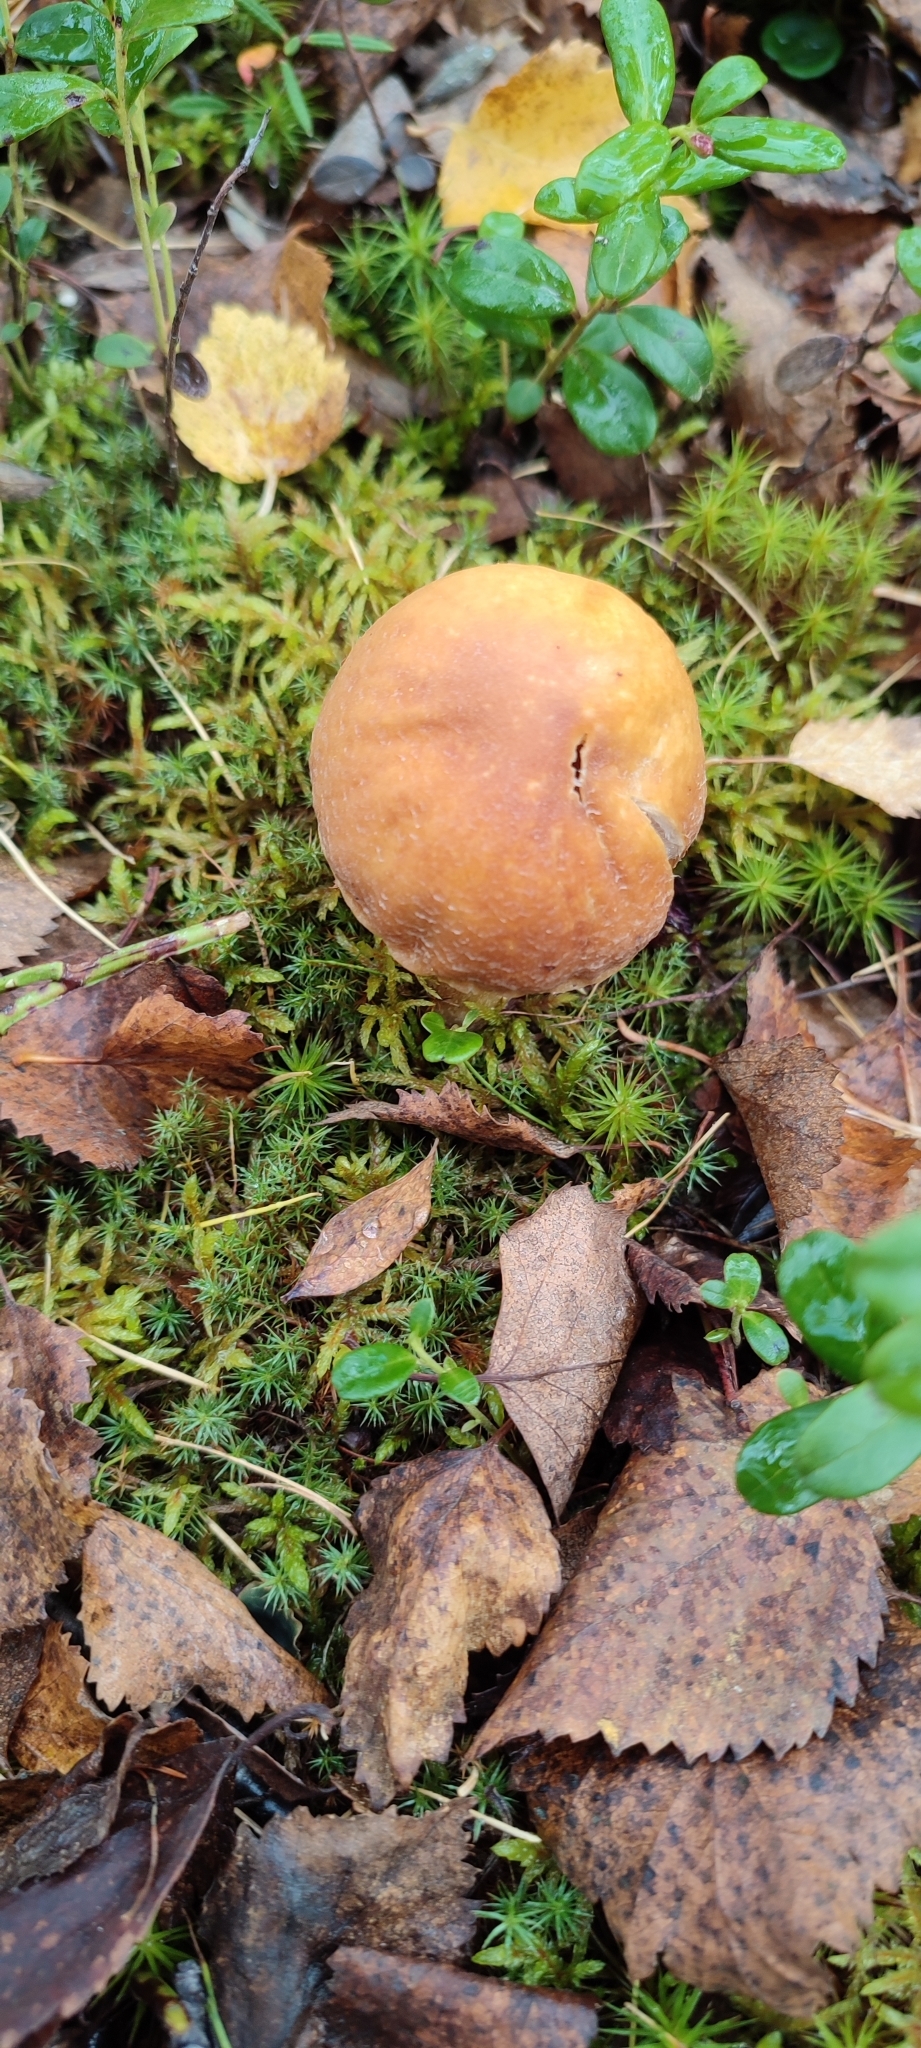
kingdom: Fungi
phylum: Basidiomycota
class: Agaricomycetes
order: Agaricales
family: Cortinariaceae
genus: Cortinarius
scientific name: Cortinarius caperatus
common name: The gypsy
